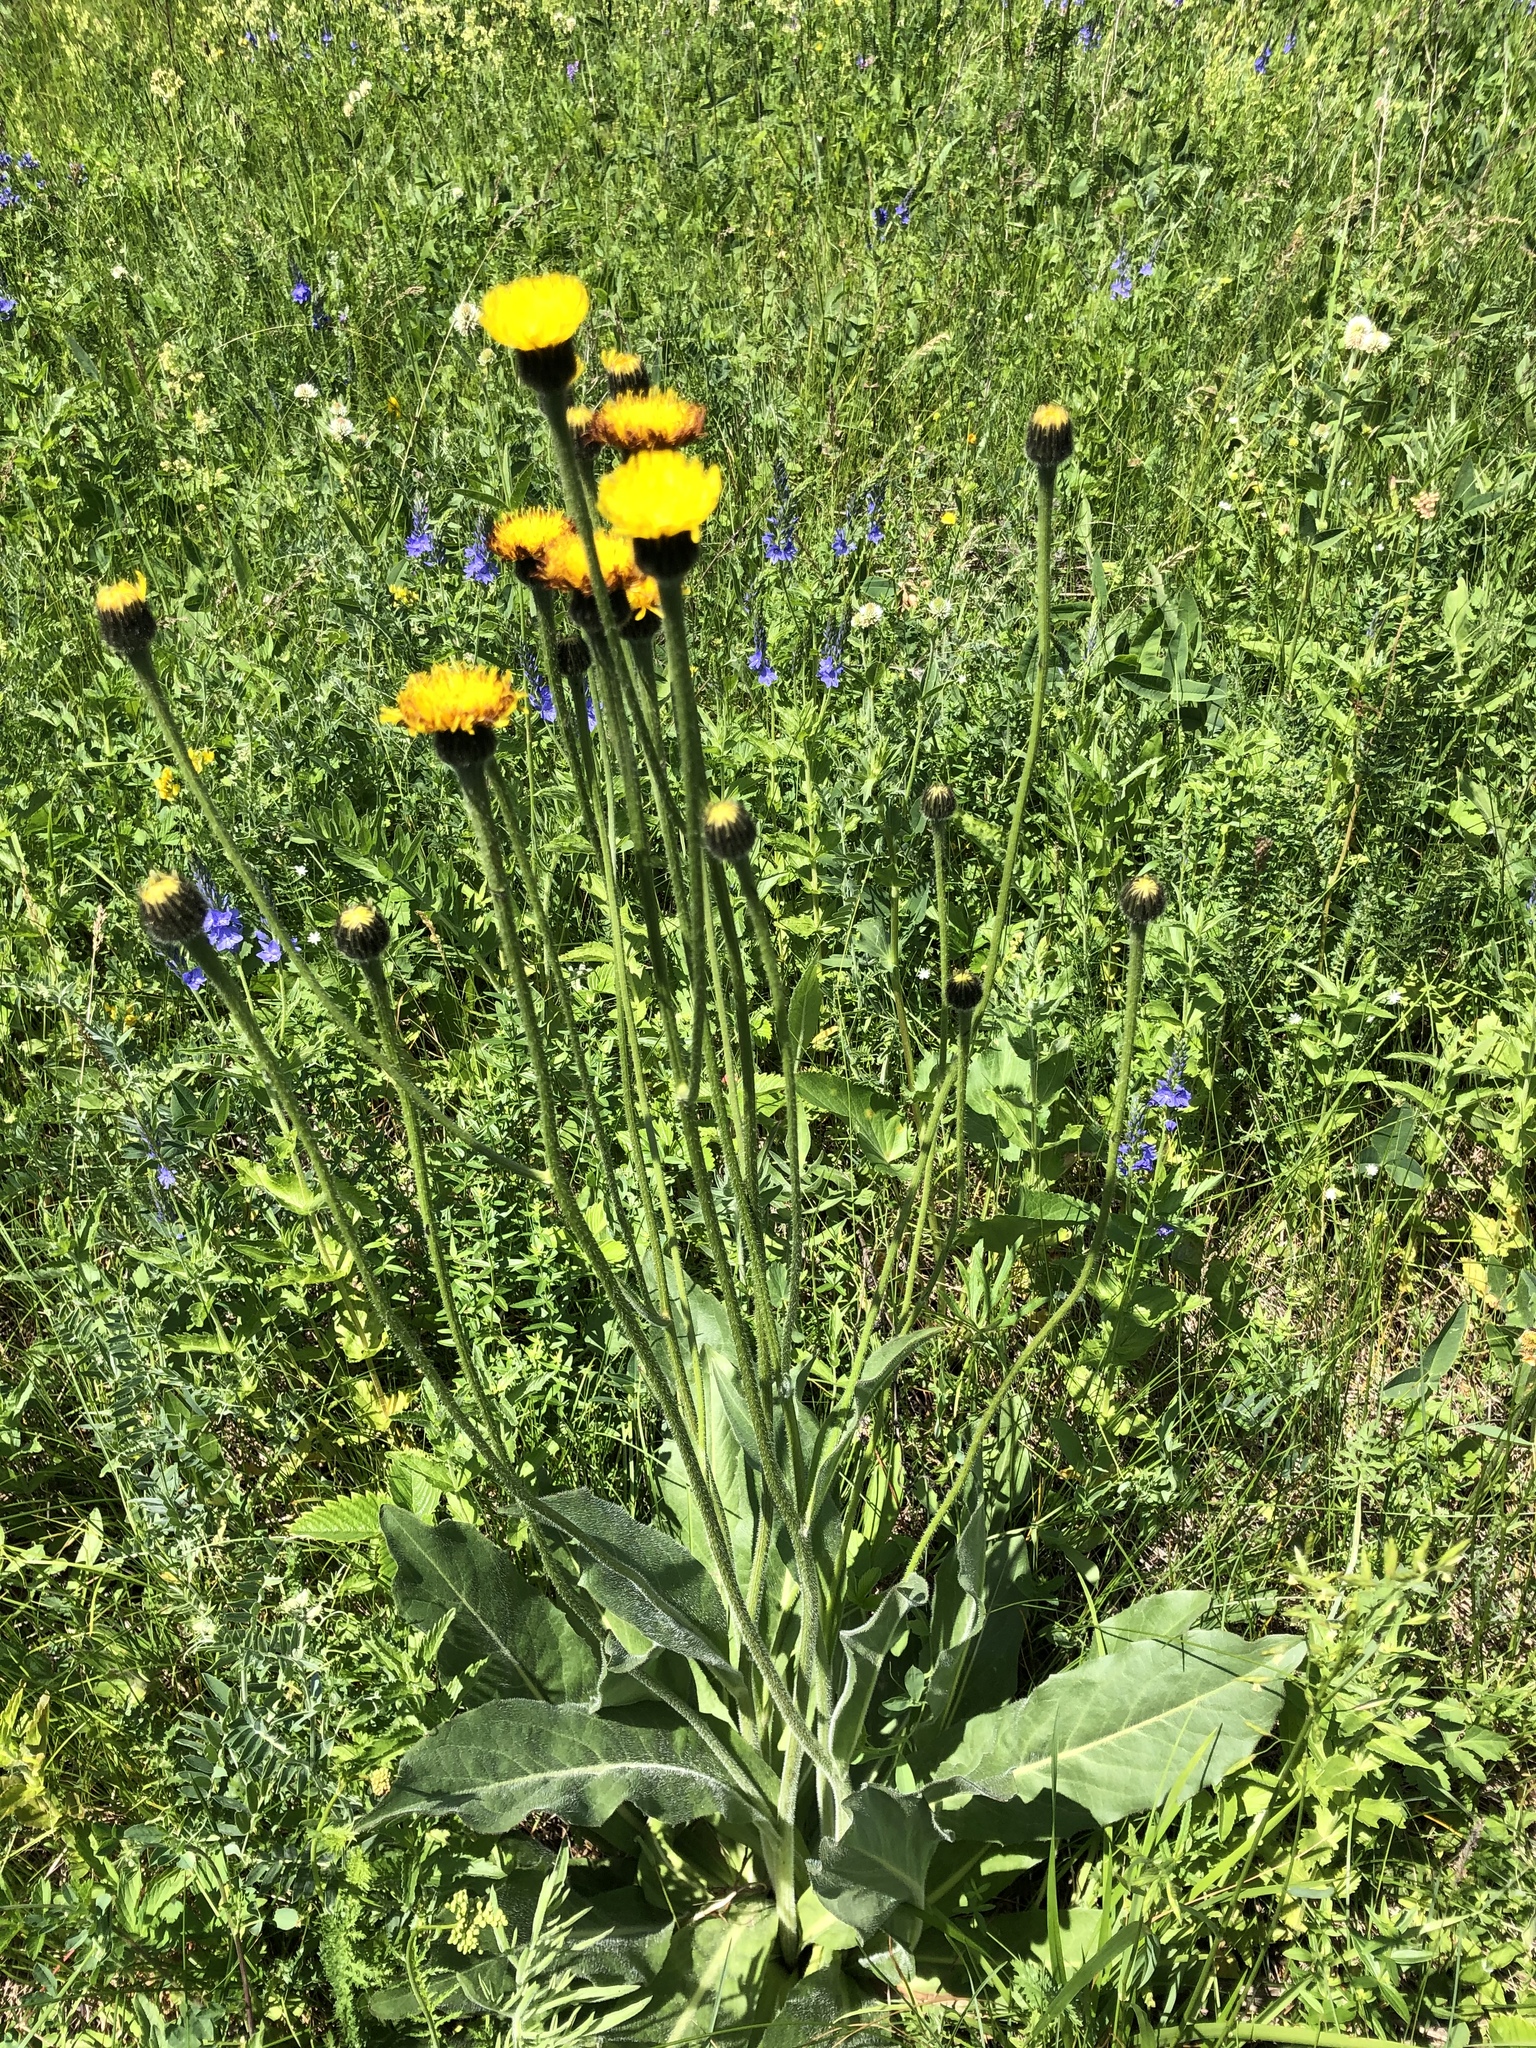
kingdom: Plantae
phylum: Tracheophyta
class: Magnoliopsida
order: Asterales
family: Asteraceae
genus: Trommsdorffia
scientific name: Trommsdorffia maculata
